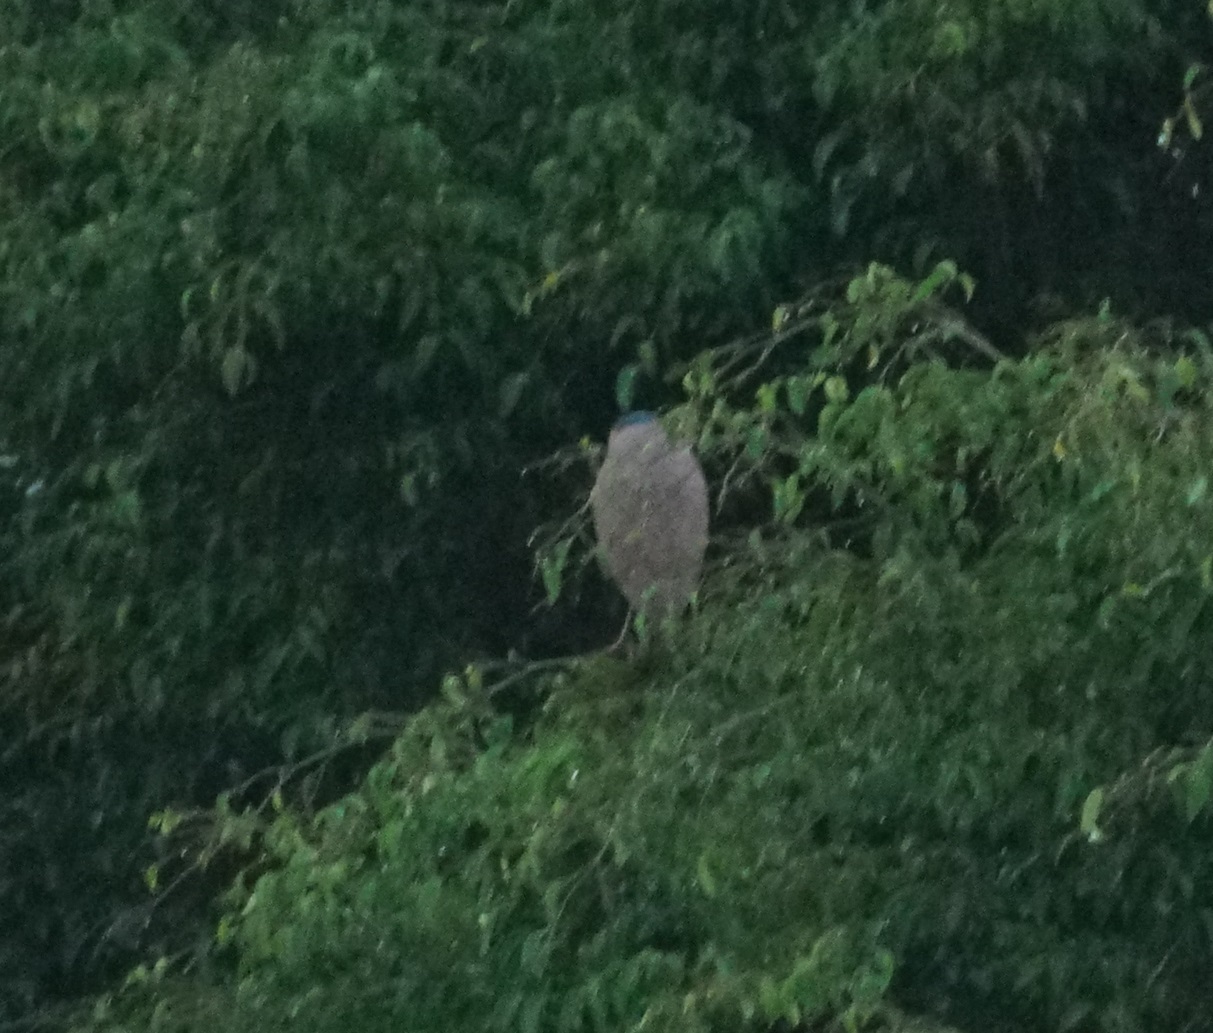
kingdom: Animalia
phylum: Chordata
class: Aves
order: Pelecaniformes
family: Ardeidae
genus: Nycticorax
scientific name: Nycticorax caledonicus
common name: Rufous night-heron
